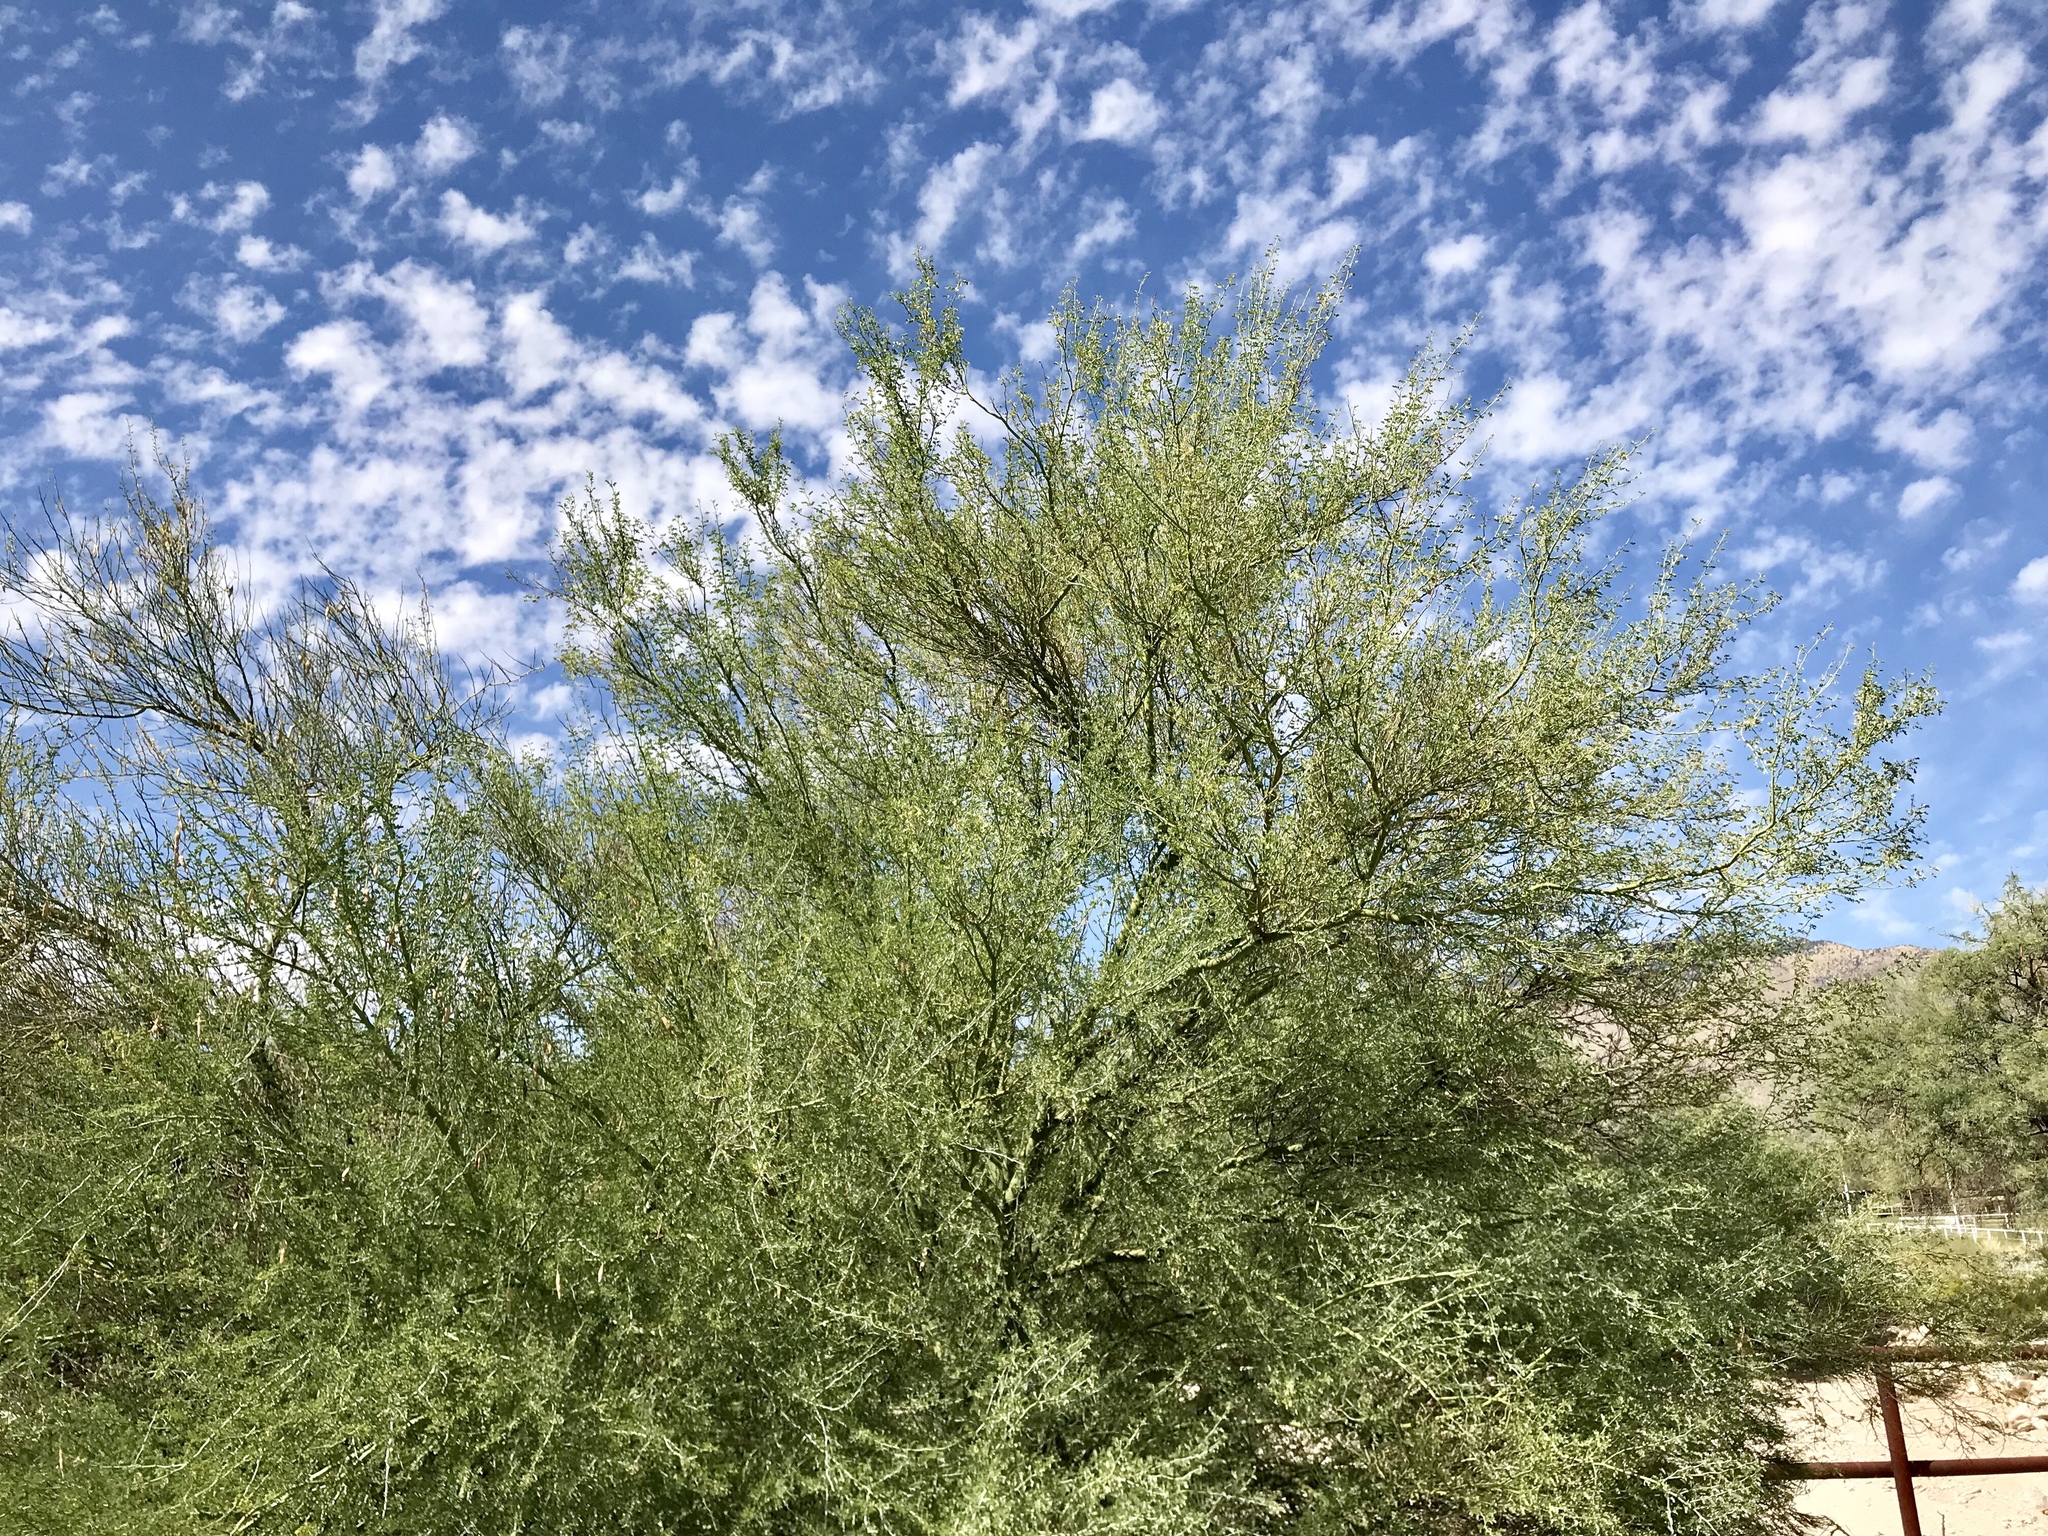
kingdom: Plantae
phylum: Tracheophyta
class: Magnoliopsida
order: Fabales
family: Fabaceae
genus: Parkinsonia
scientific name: Parkinsonia florida
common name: Blue paloverde
